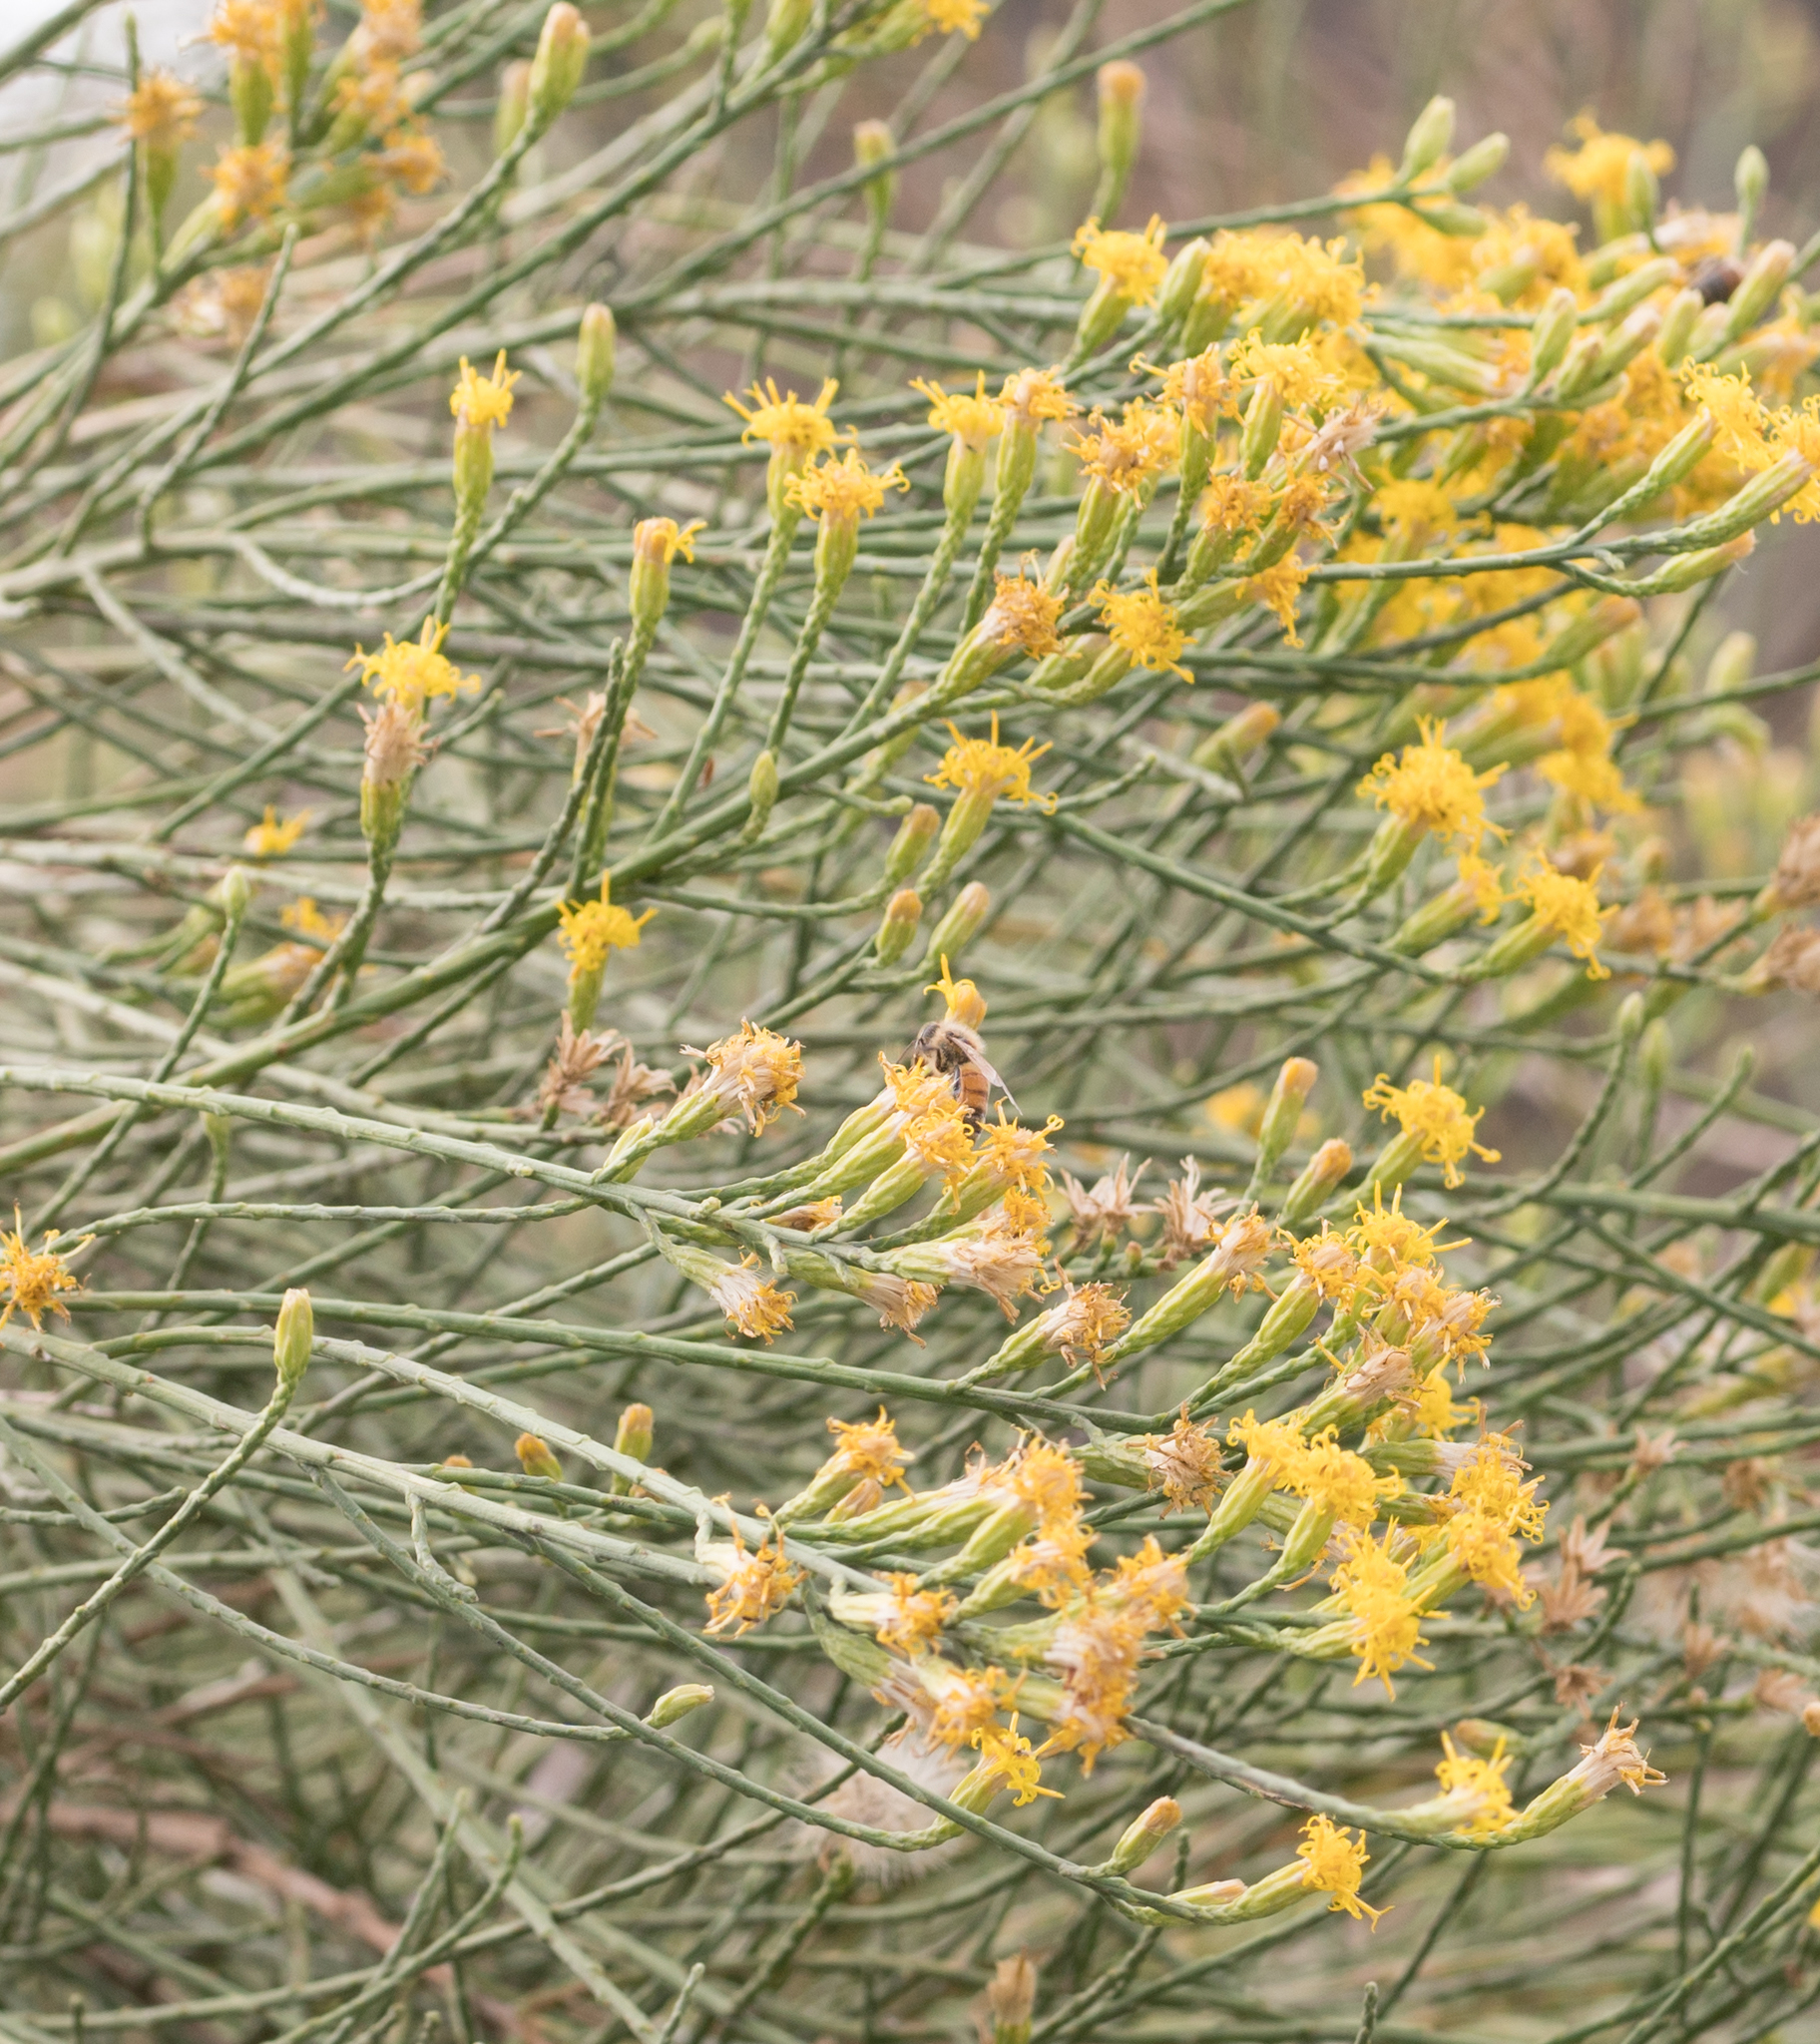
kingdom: Plantae
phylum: Tracheophyta
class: Magnoliopsida
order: Asterales
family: Asteraceae
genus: Lepidospartum
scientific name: Lepidospartum squamatum
